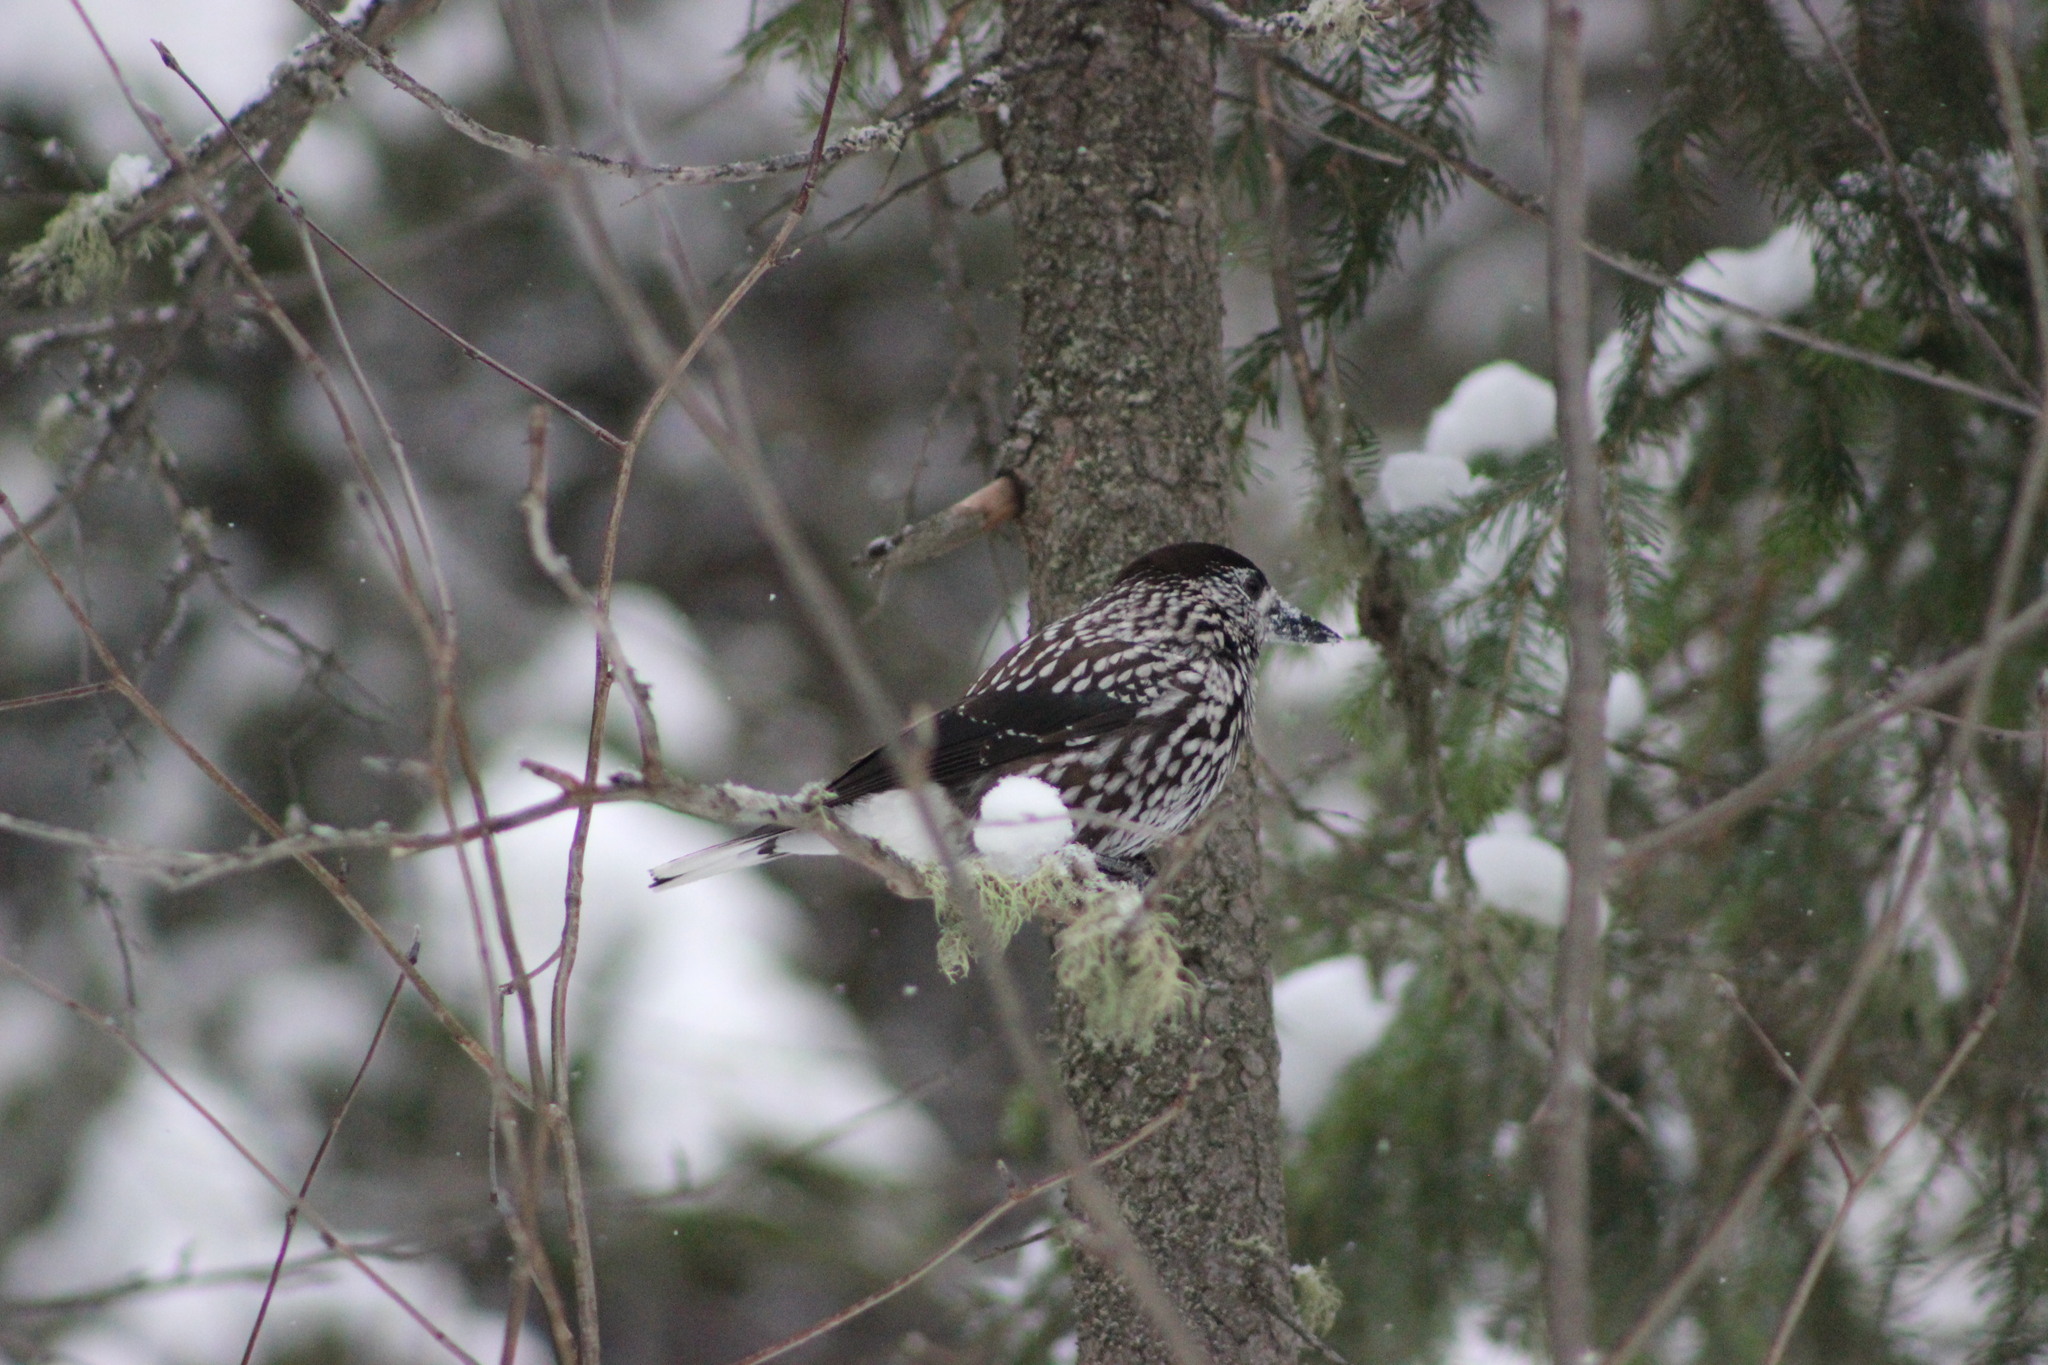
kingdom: Animalia
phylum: Chordata
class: Aves
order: Passeriformes
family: Corvidae
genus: Nucifraga
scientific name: Nucifraga caryocatactes
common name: Spotted nutcracker
